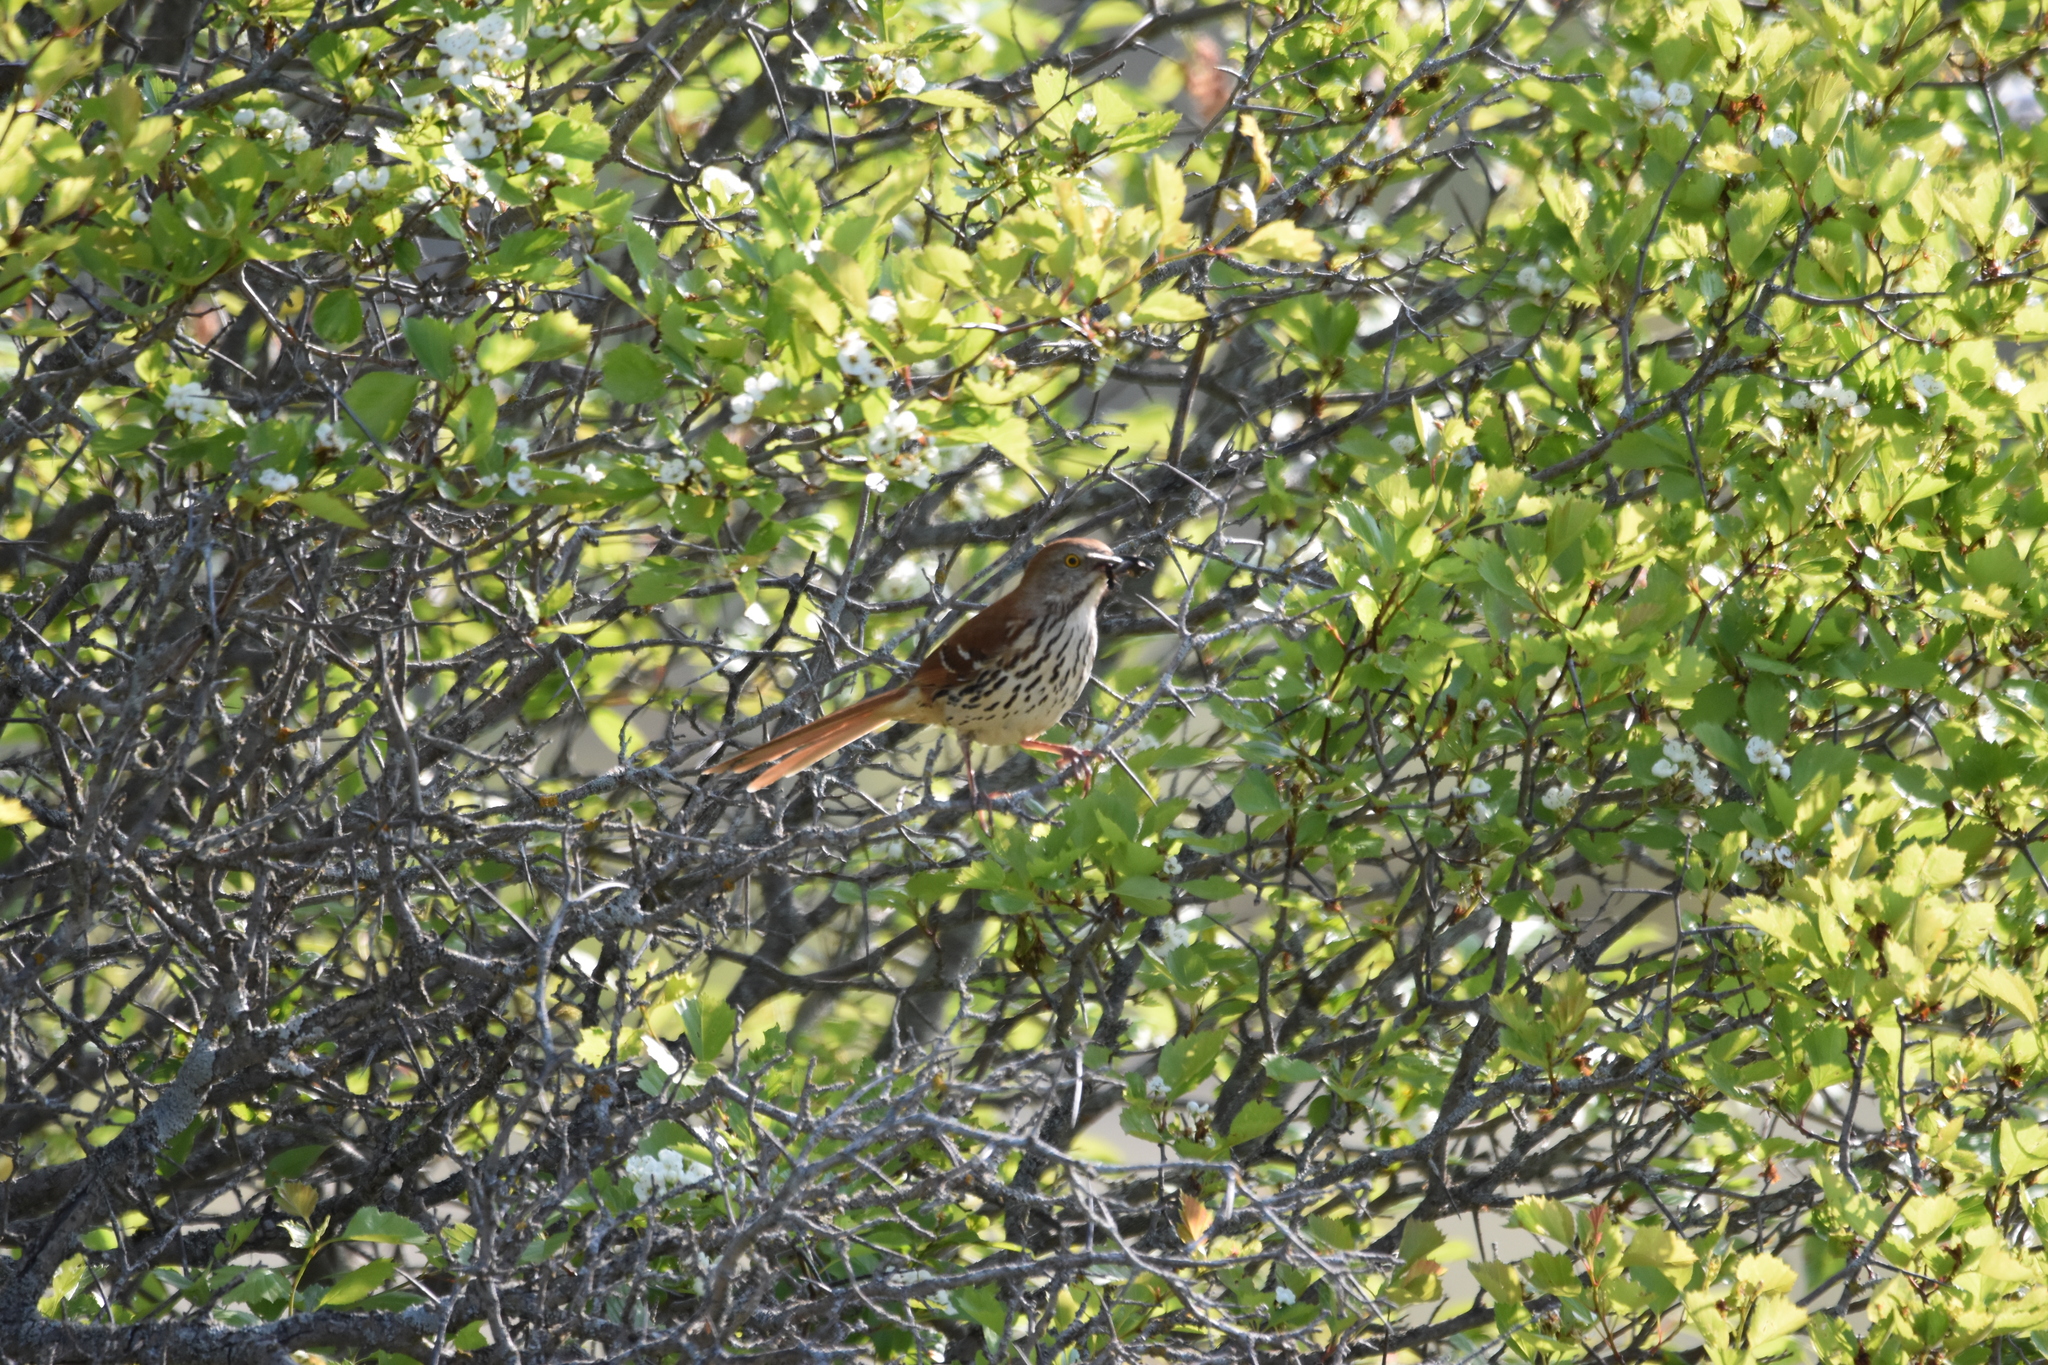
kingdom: Animalia
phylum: Chordata
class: Aves
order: Passeriformes
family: Mimidae
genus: Toxostoma
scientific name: Toxostoma rufum
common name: Brown thrasher
